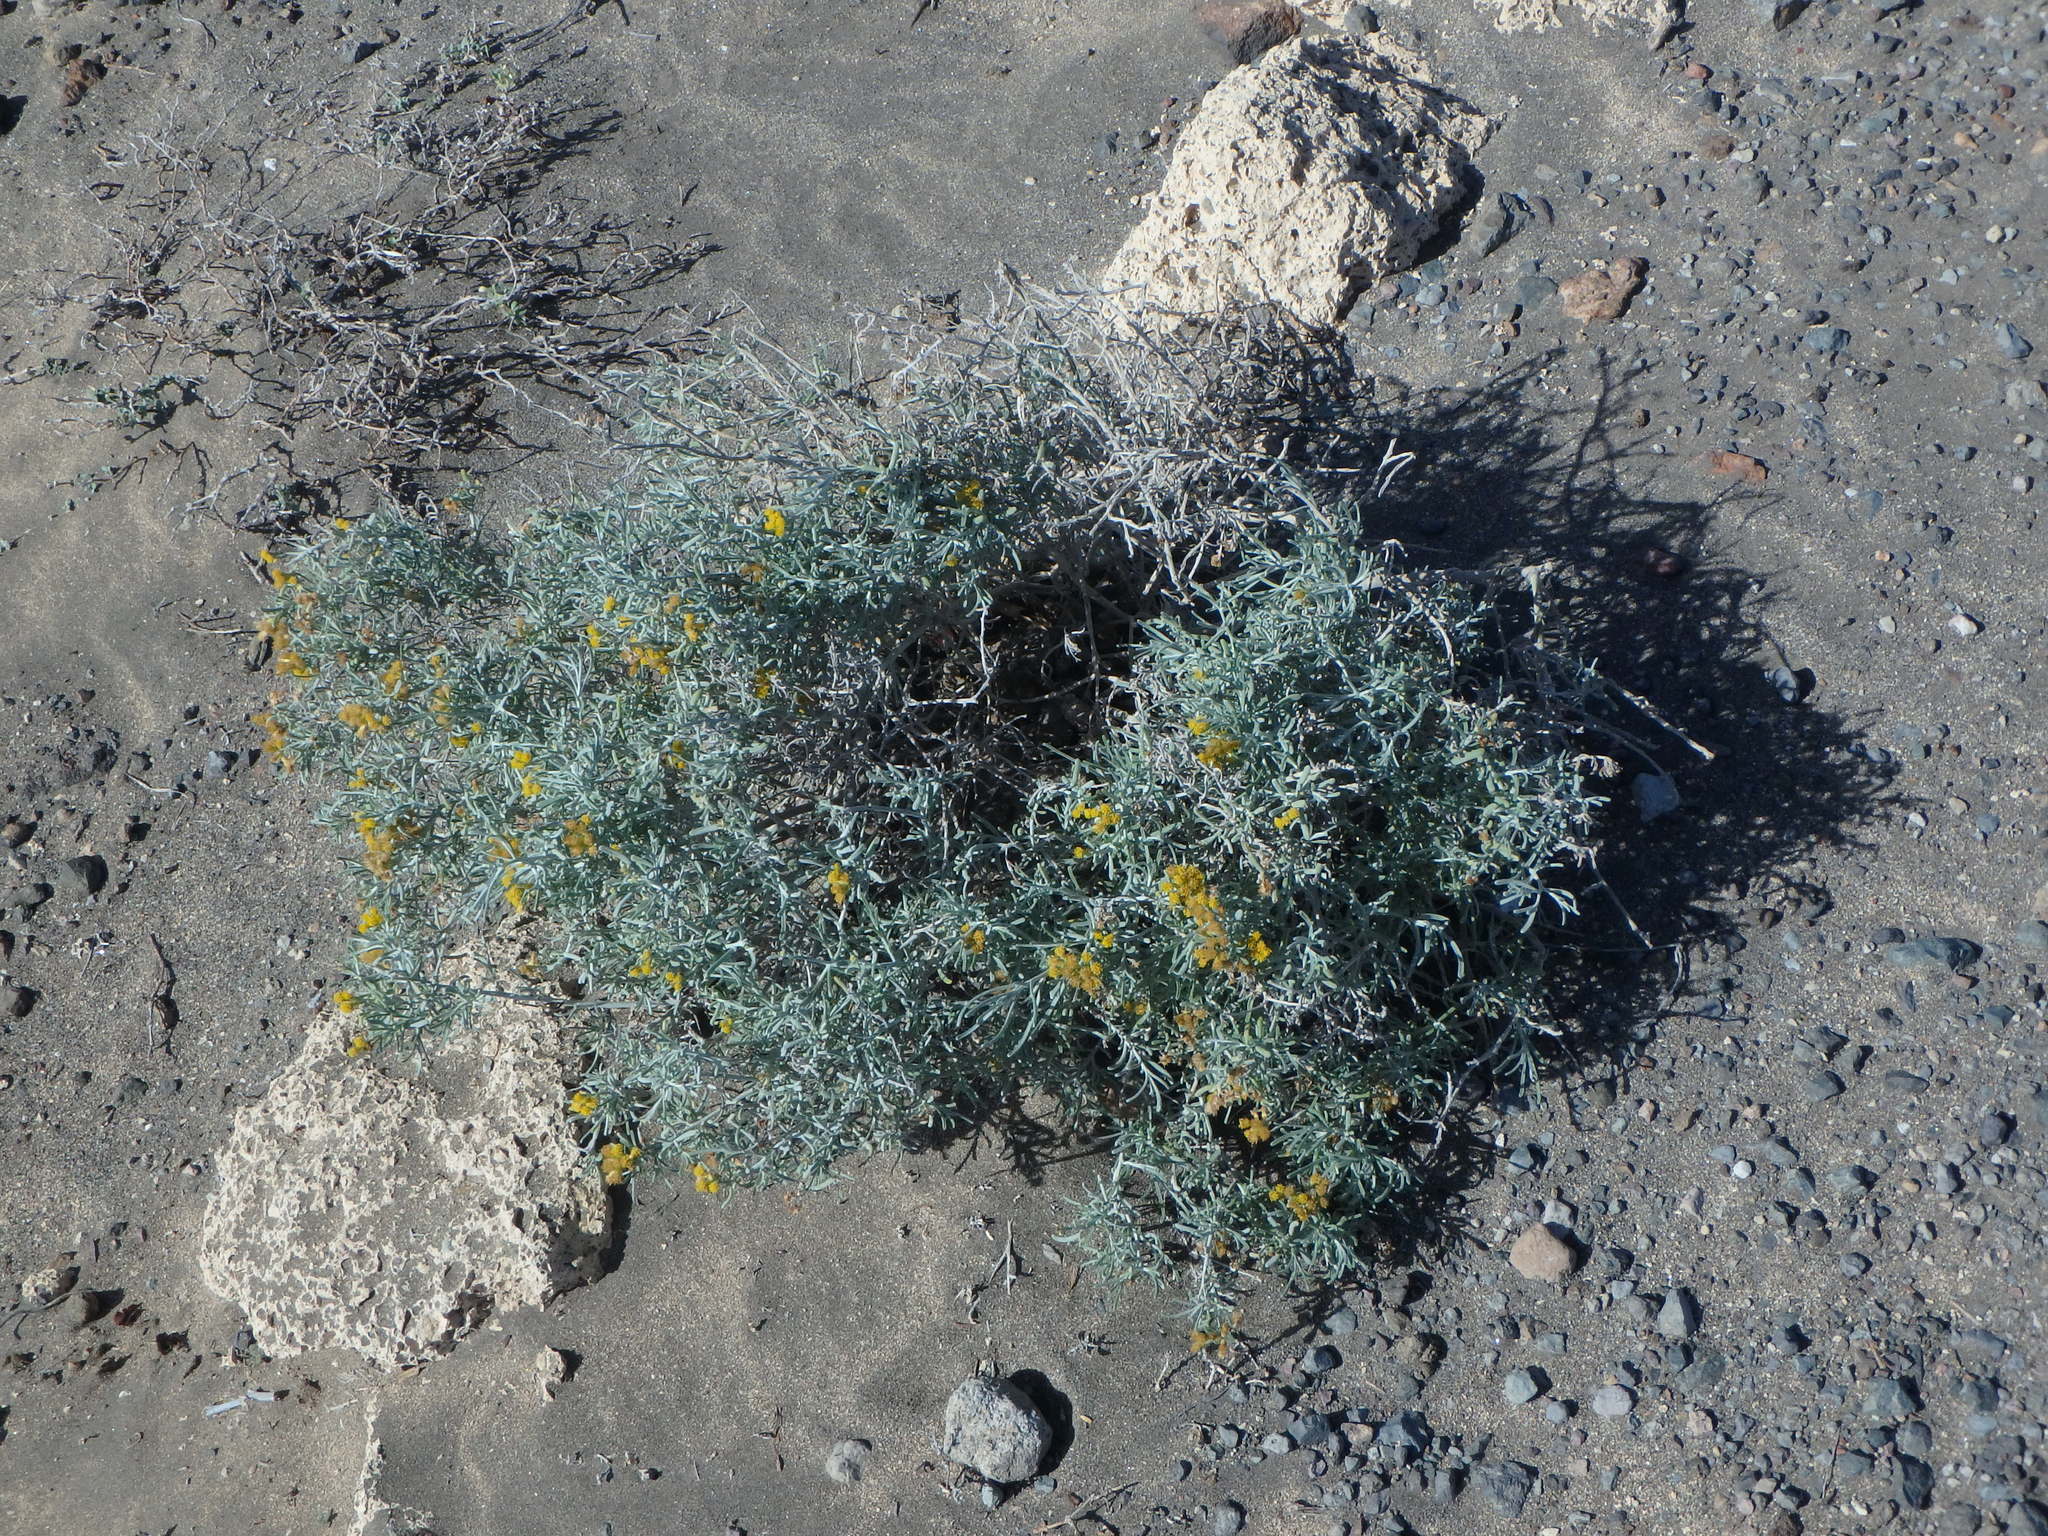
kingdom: Plantae
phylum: Tracheophyta
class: Magnoliopsida
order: Asterales
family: Asteraceae
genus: Schizogyne
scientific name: Schizogyne sericea
